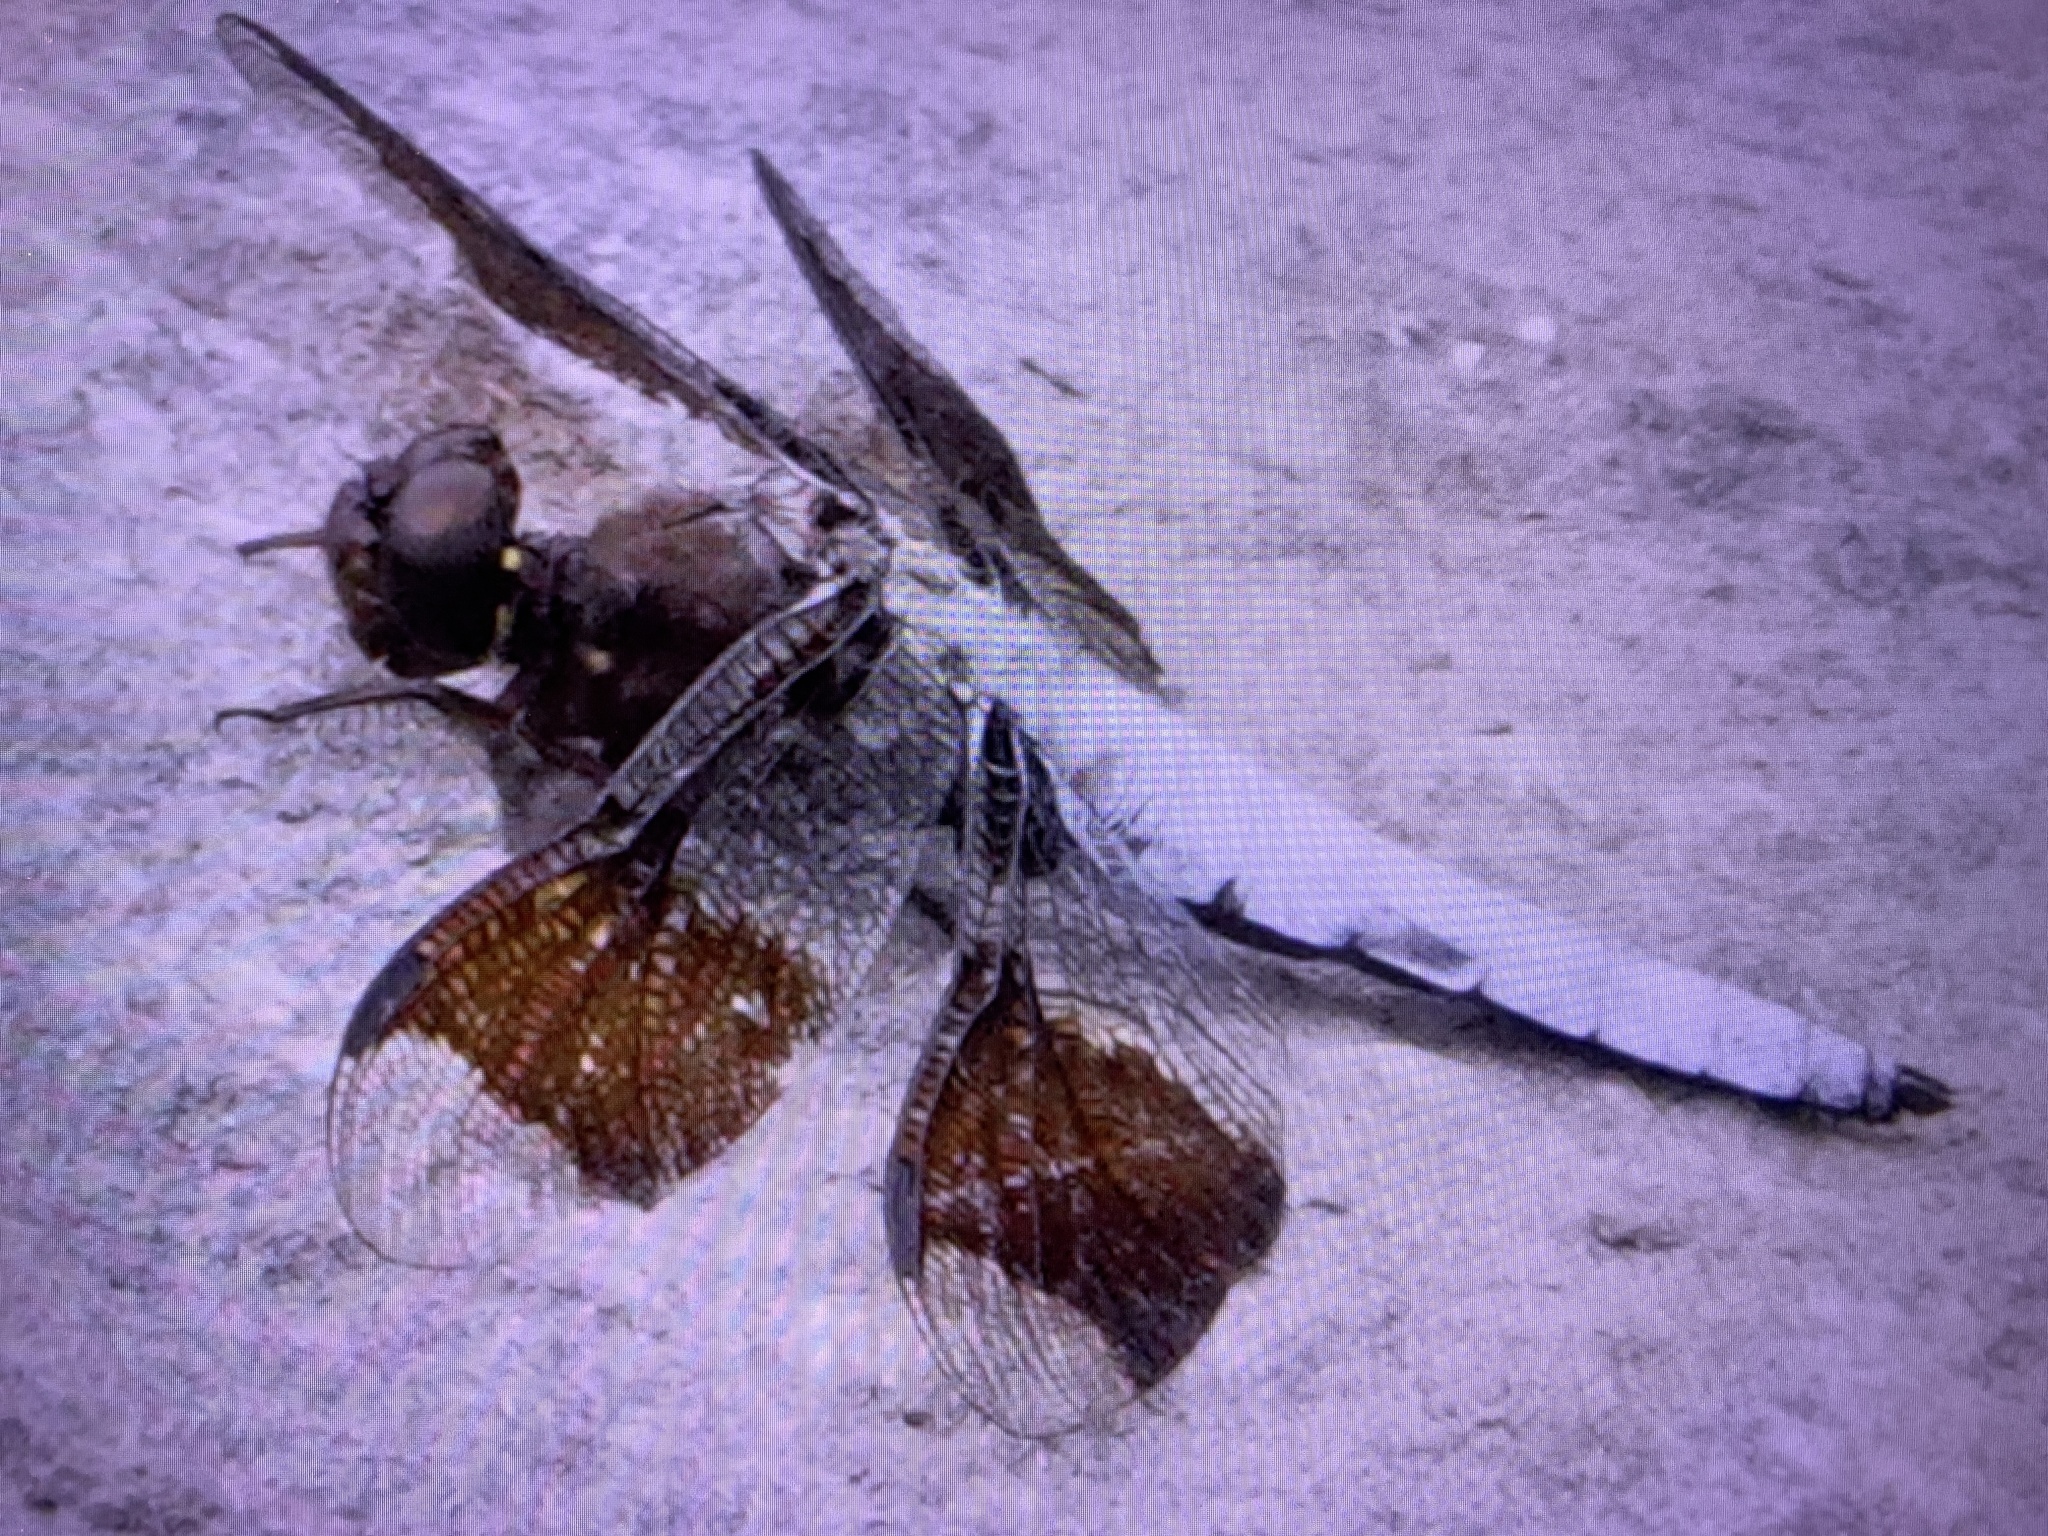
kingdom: Animalia
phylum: Arthropoda
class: Insecta
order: Odonata
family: Libellulidae
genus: Plathemis
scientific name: Plathemis lydia
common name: Common whitetail
